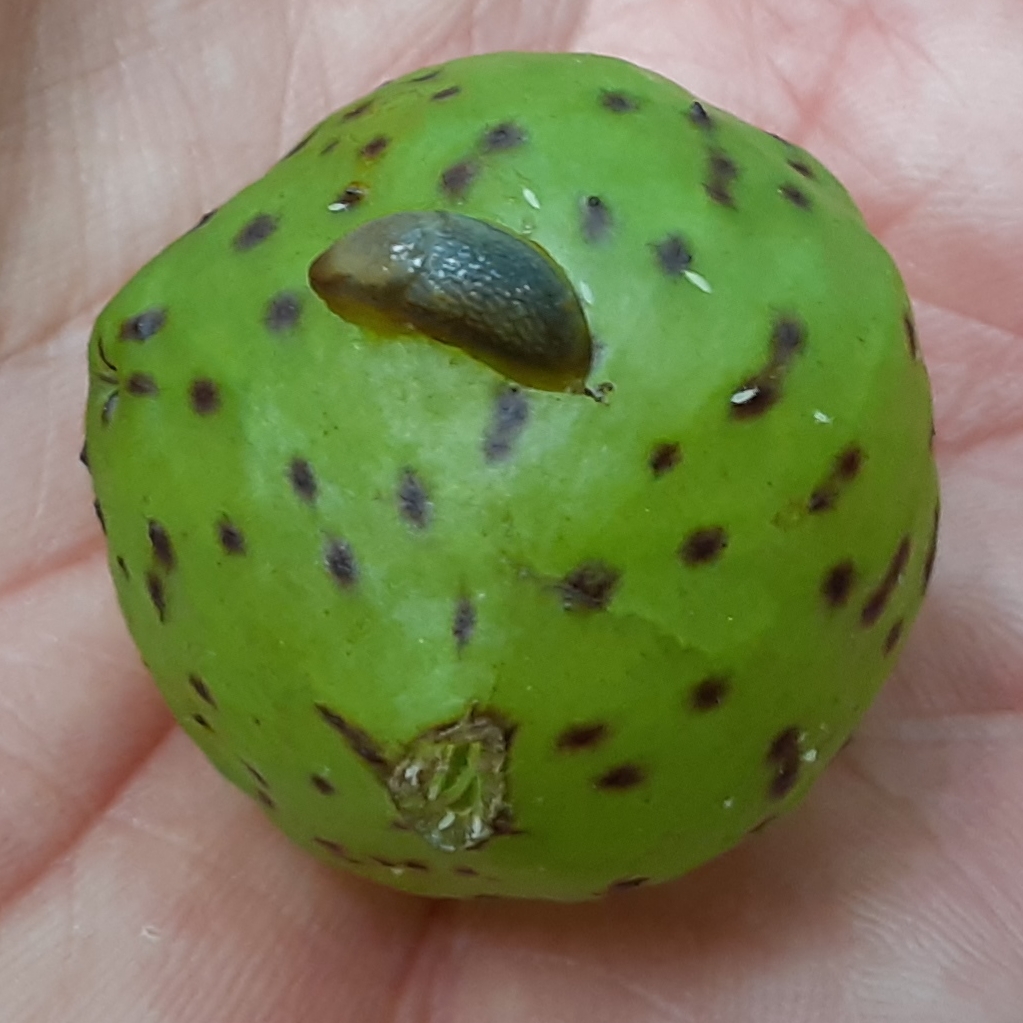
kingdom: Animalia
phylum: Arthropoda
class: Insecta
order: Hymenoptera
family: Cynipidae
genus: Amphibolips
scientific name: Amphibolips
